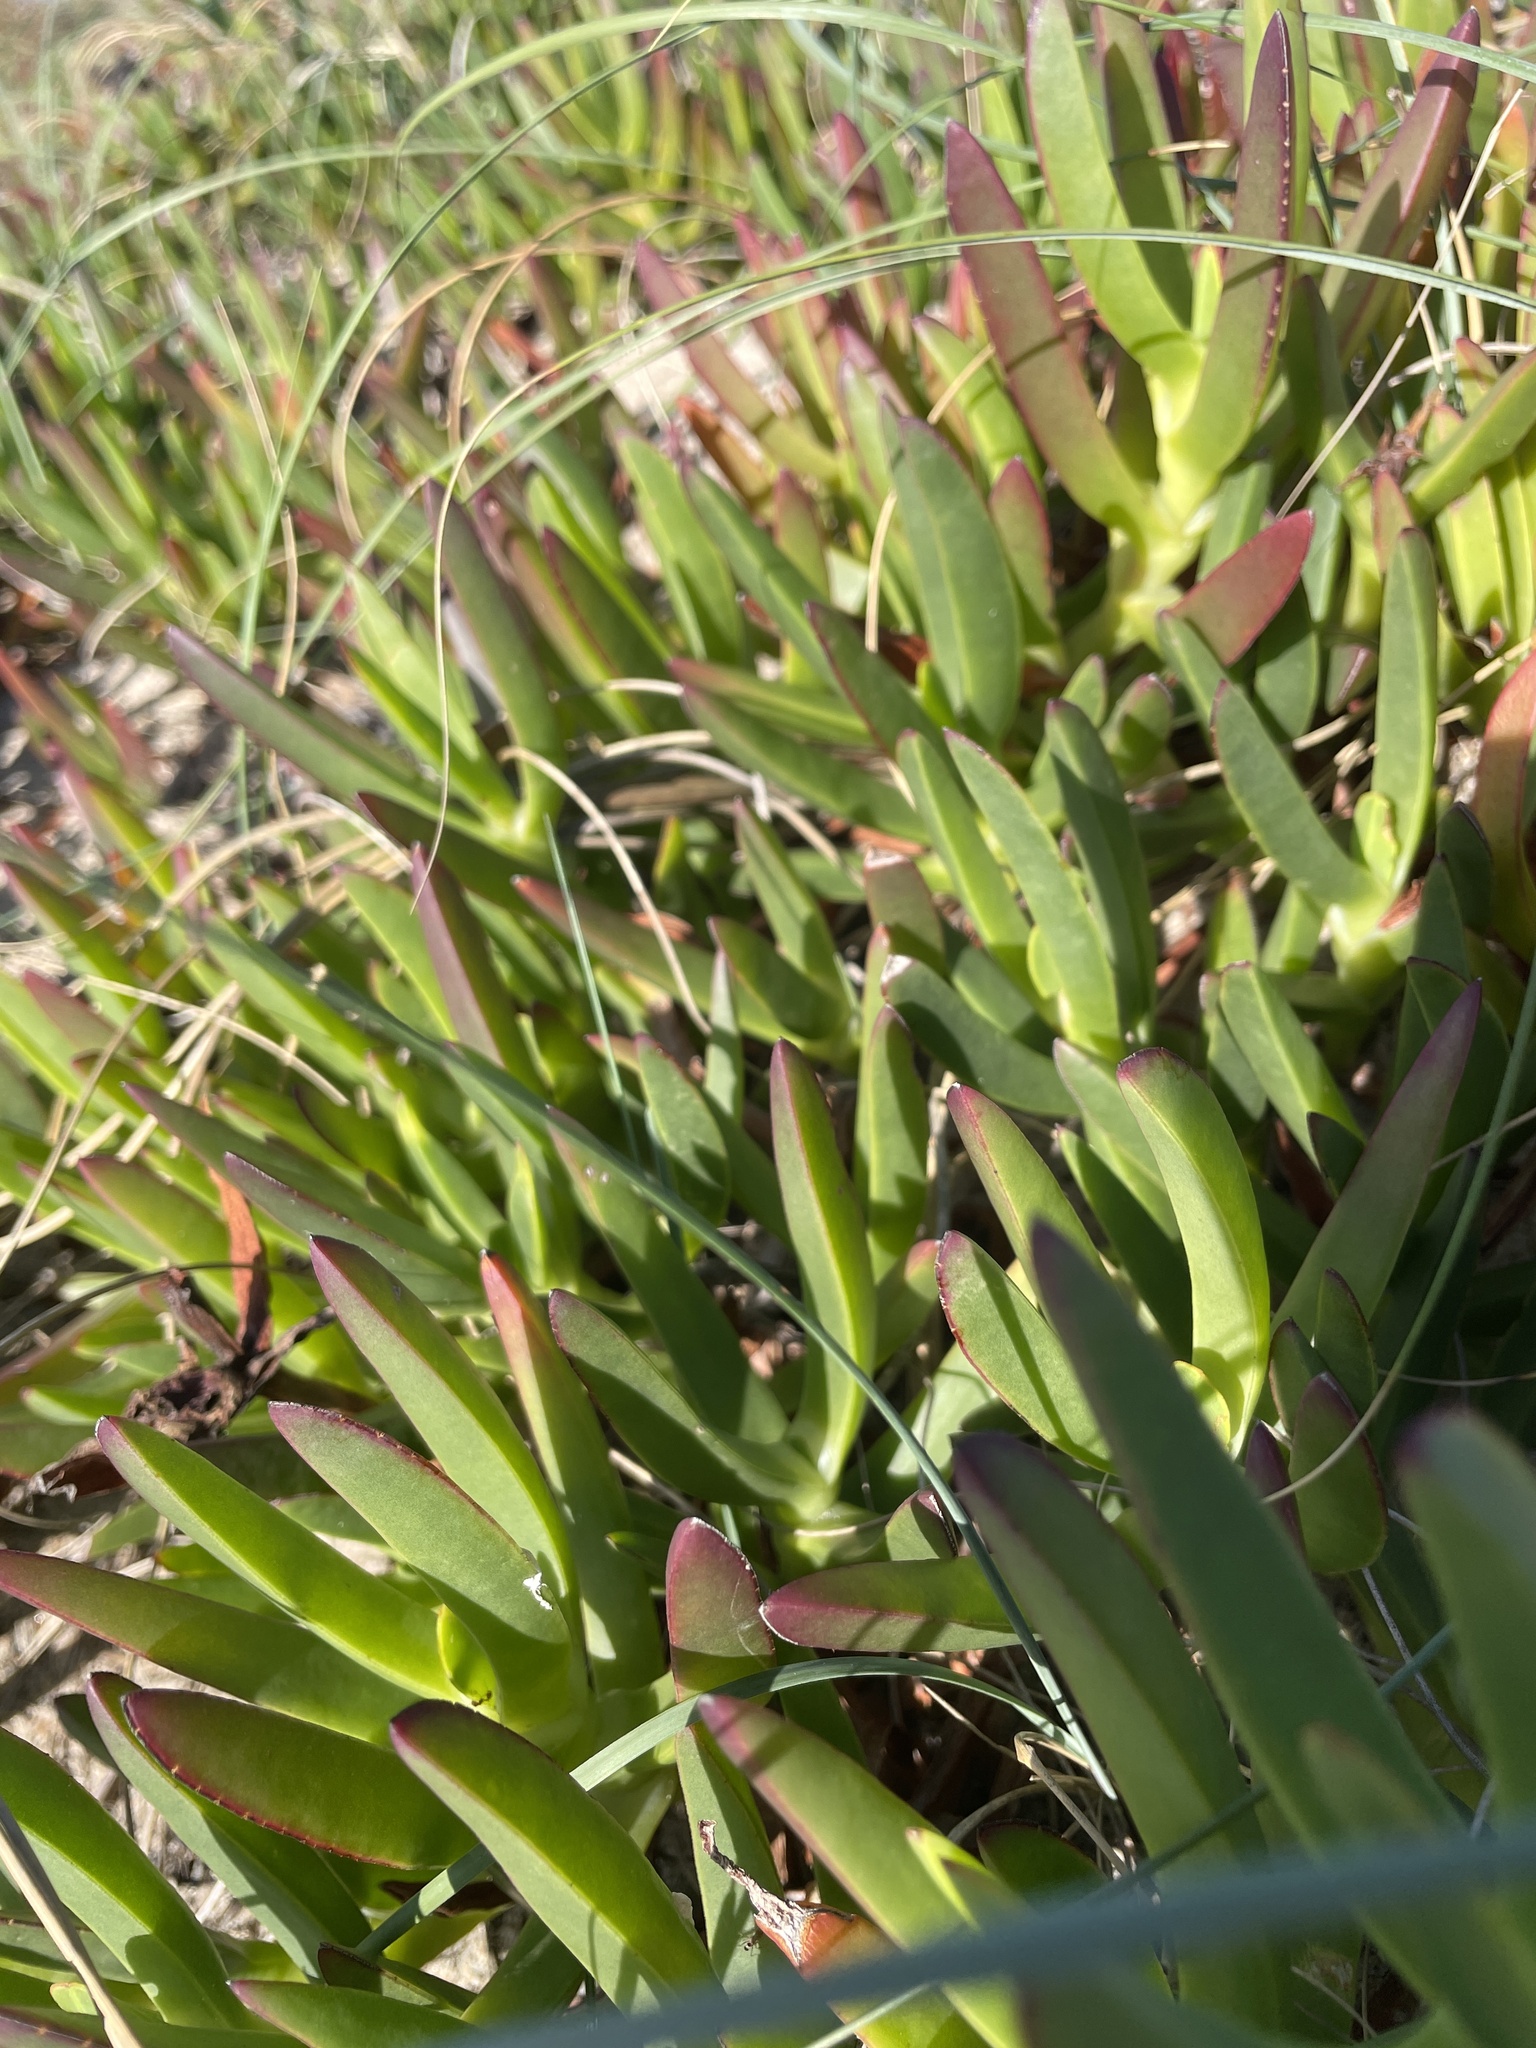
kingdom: Plantae
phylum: Tracheophyta
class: Magnoliopsida
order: Caryophyllales
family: Aizoaceae
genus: Carpobrotus
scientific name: Carpobrotus edulis
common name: Hottentot-fig
